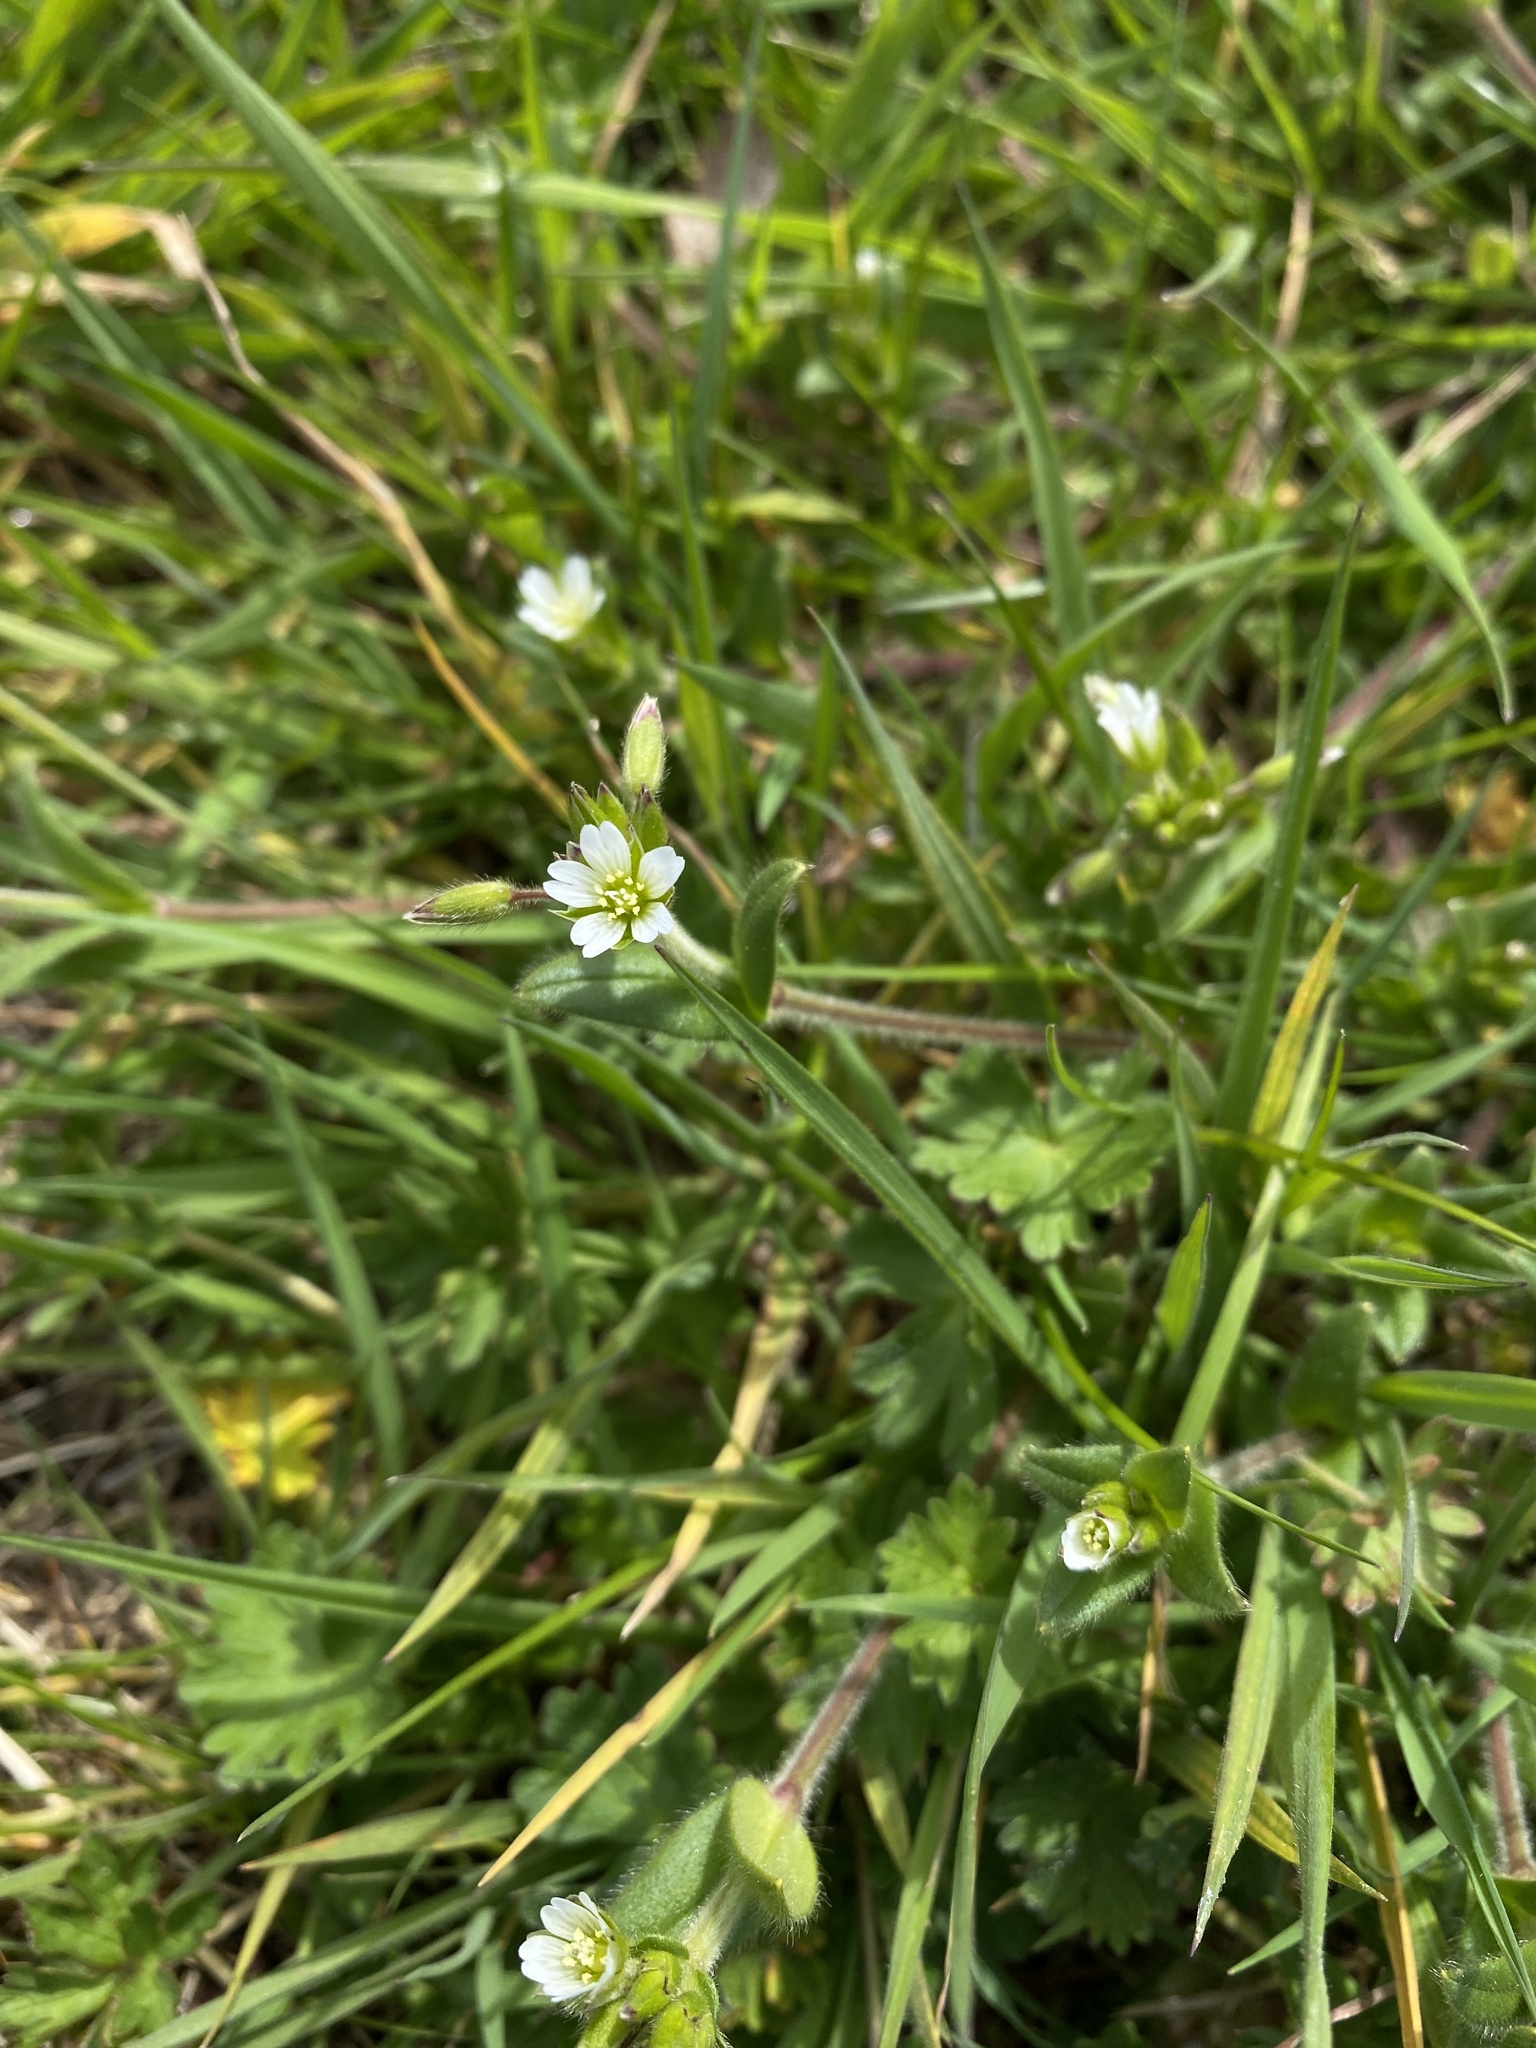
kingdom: Plantae
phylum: Tracheophyta
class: Magnoliopsida
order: Caryophyllales
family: Caryophyllaceae
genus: Cerastium
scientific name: Cerastium fontanum
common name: Common mouse-ear
